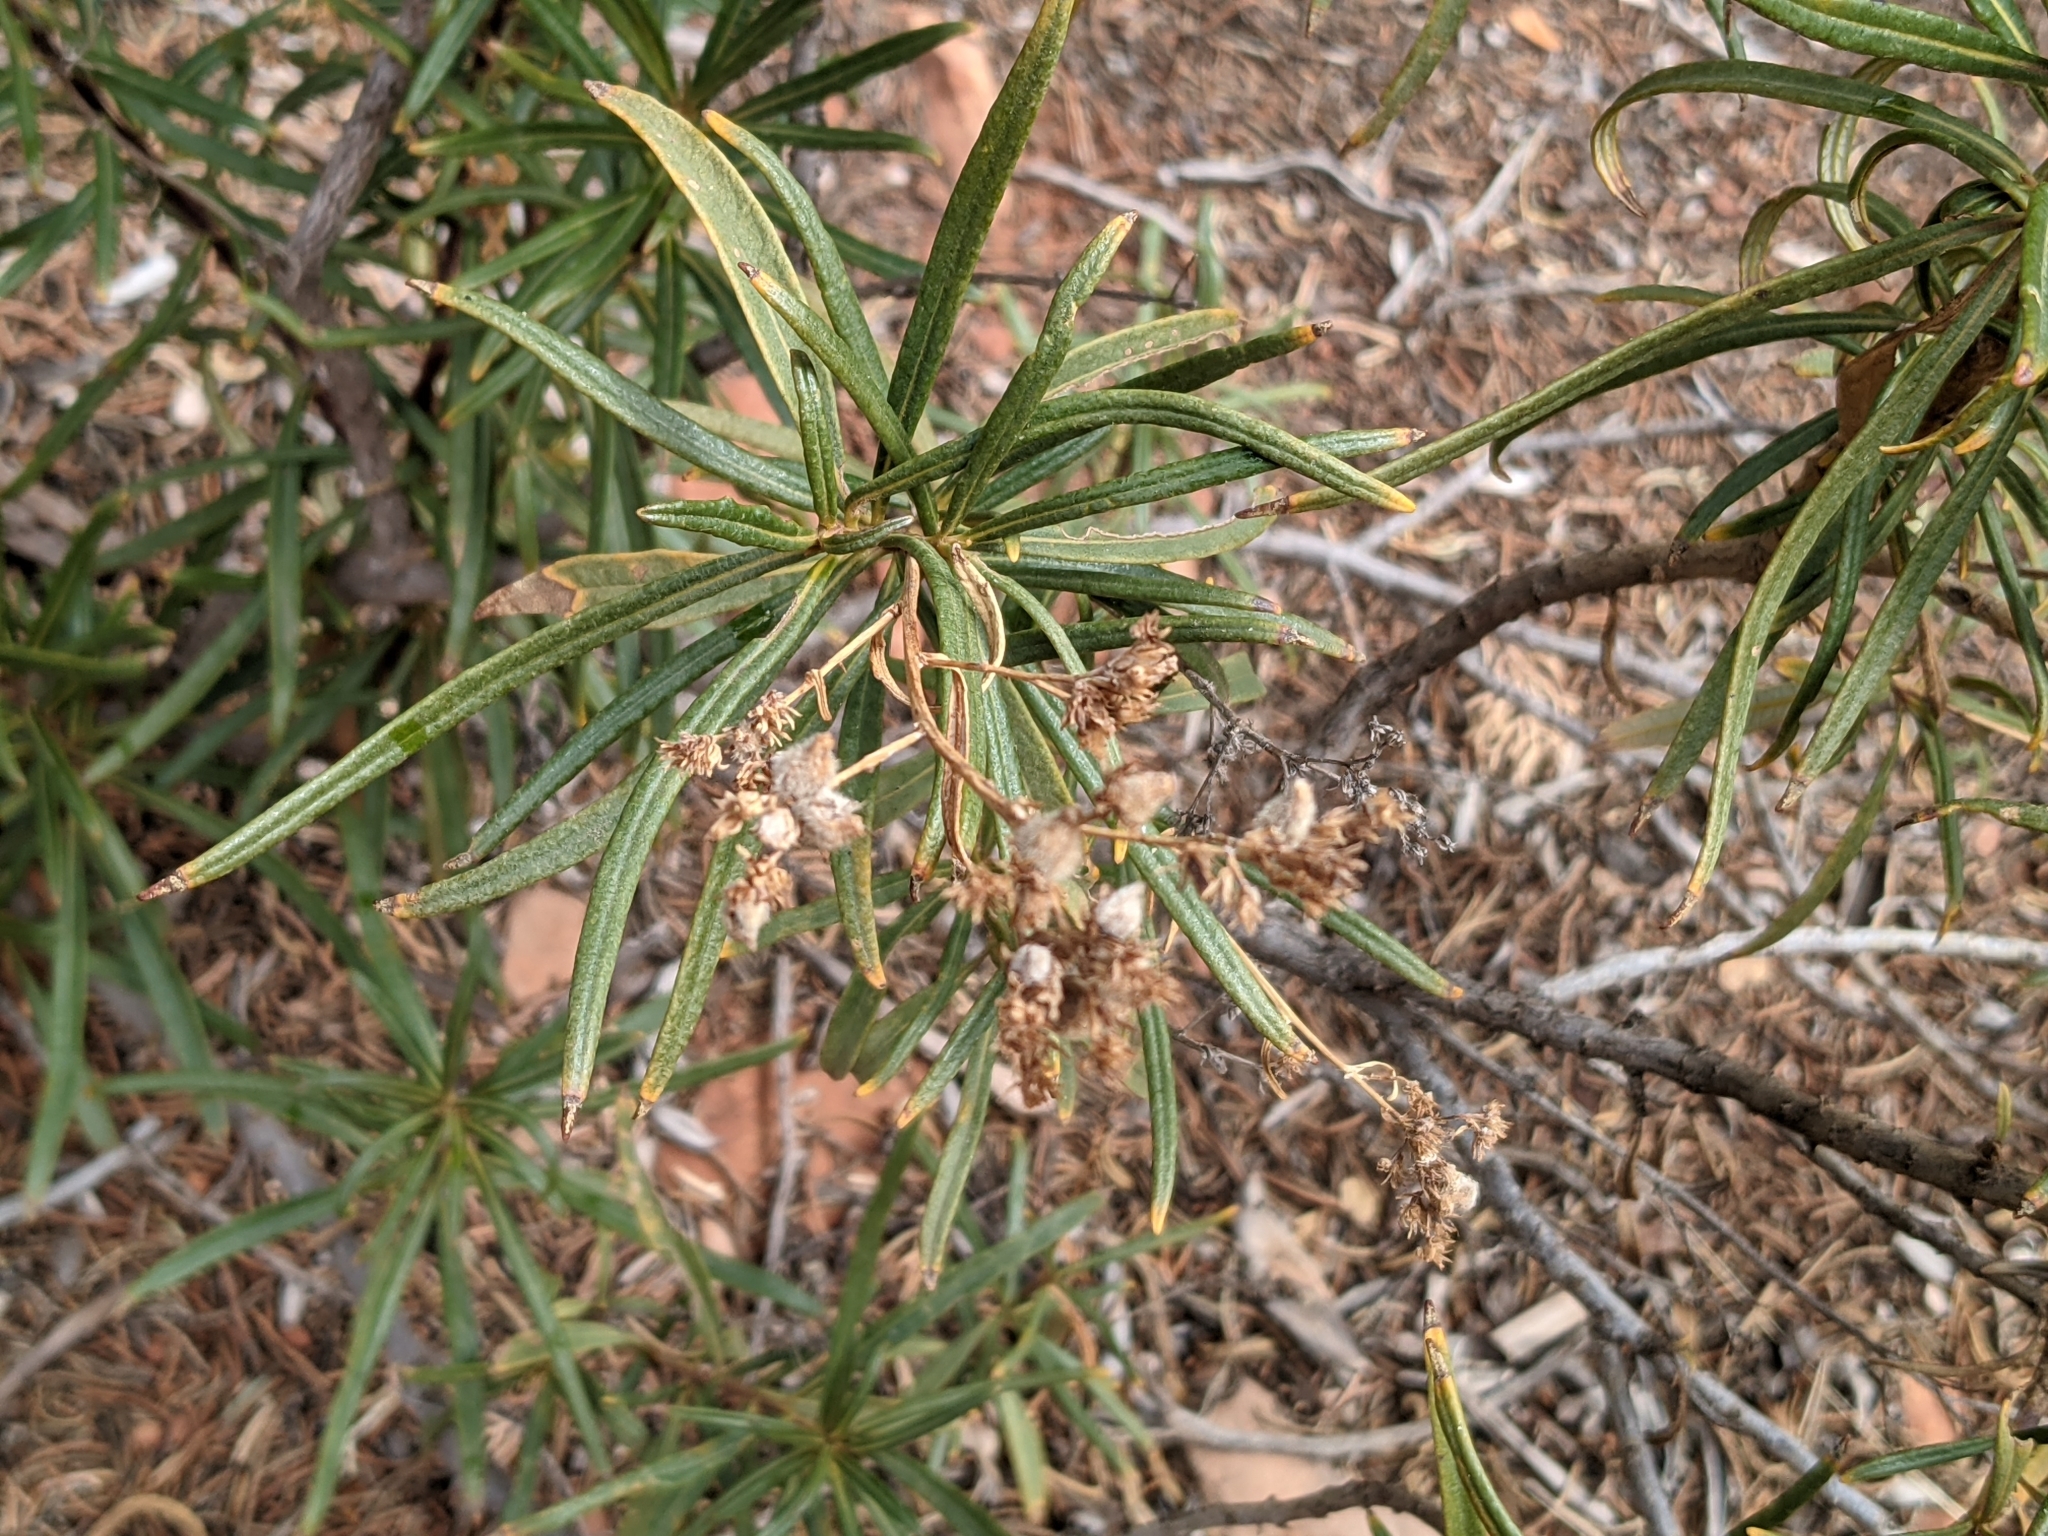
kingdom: Plantae
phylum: Tracheophyta
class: Magnoliopsida
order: Boraginales
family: Namaceae
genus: Eriodictyon
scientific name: Eriodictyon angustifolium
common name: Narrow-leaf yerba santa
